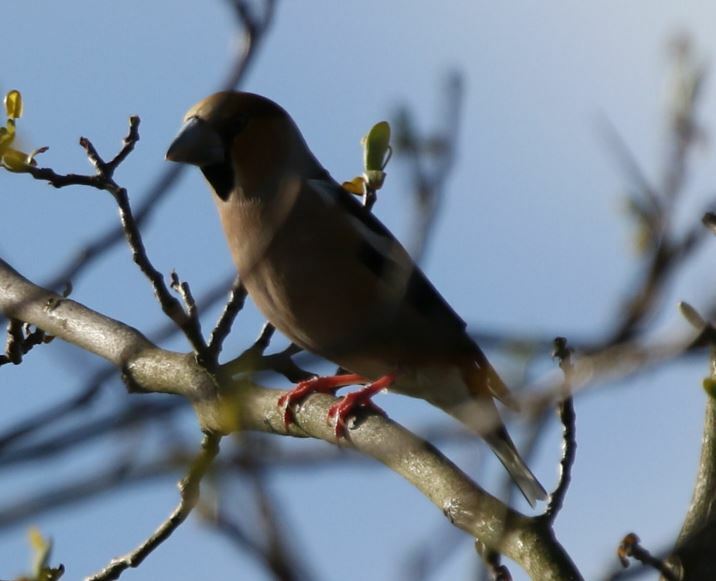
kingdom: Animalia
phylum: Chordata
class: Aves
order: Passeriformes
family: Fringillidae
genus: Coccothraustes
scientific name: Coccothraustes coccothraustes
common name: Hawfinch
